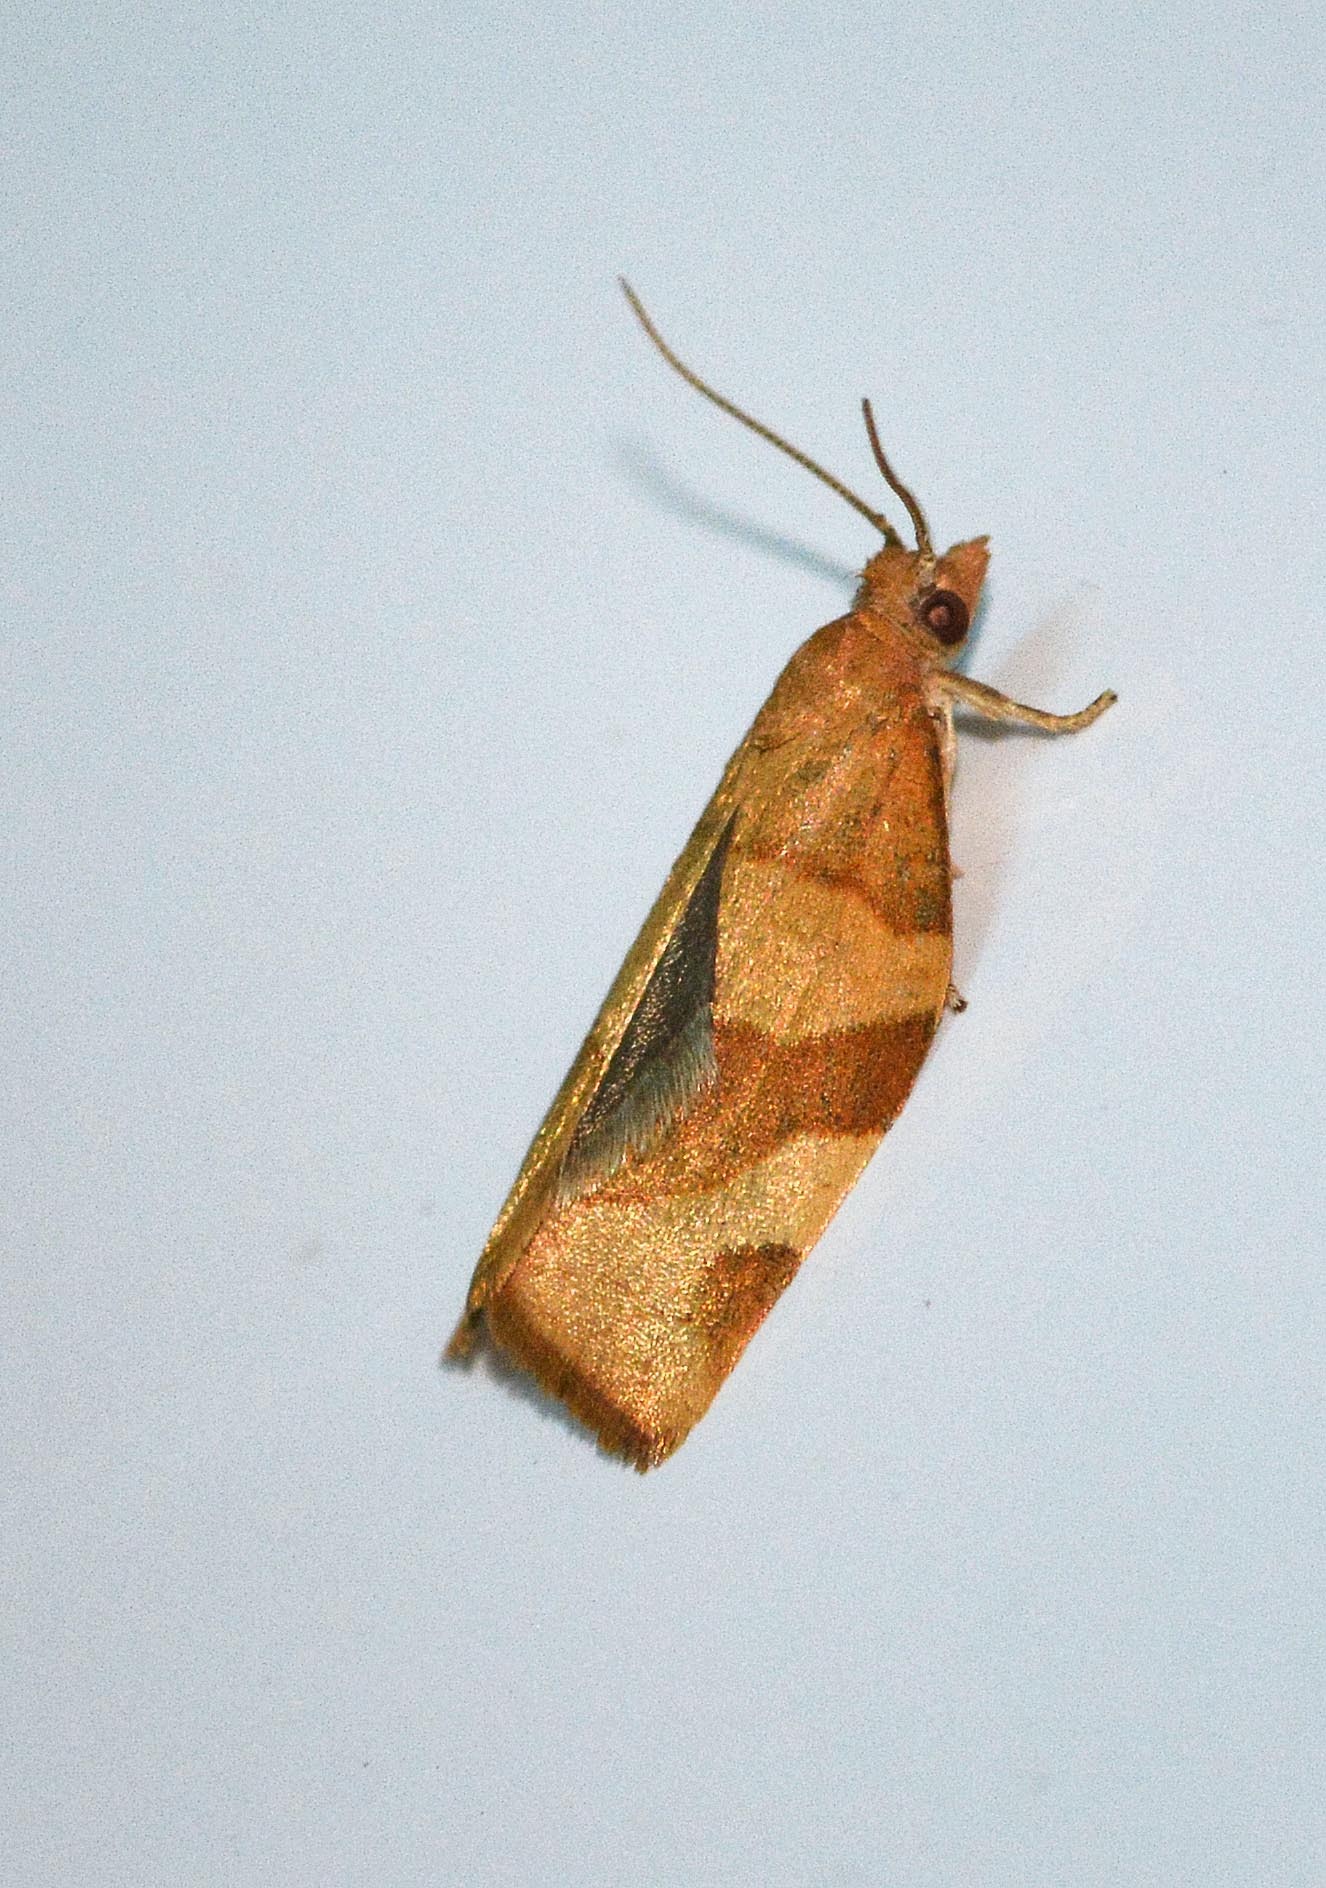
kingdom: Animalia
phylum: Arthropoda
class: Insecta
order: Lepidoptera
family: Tortricidae
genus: Pandemis
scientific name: Pandemis cerasana
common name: Barred fruit-tree tortrix
